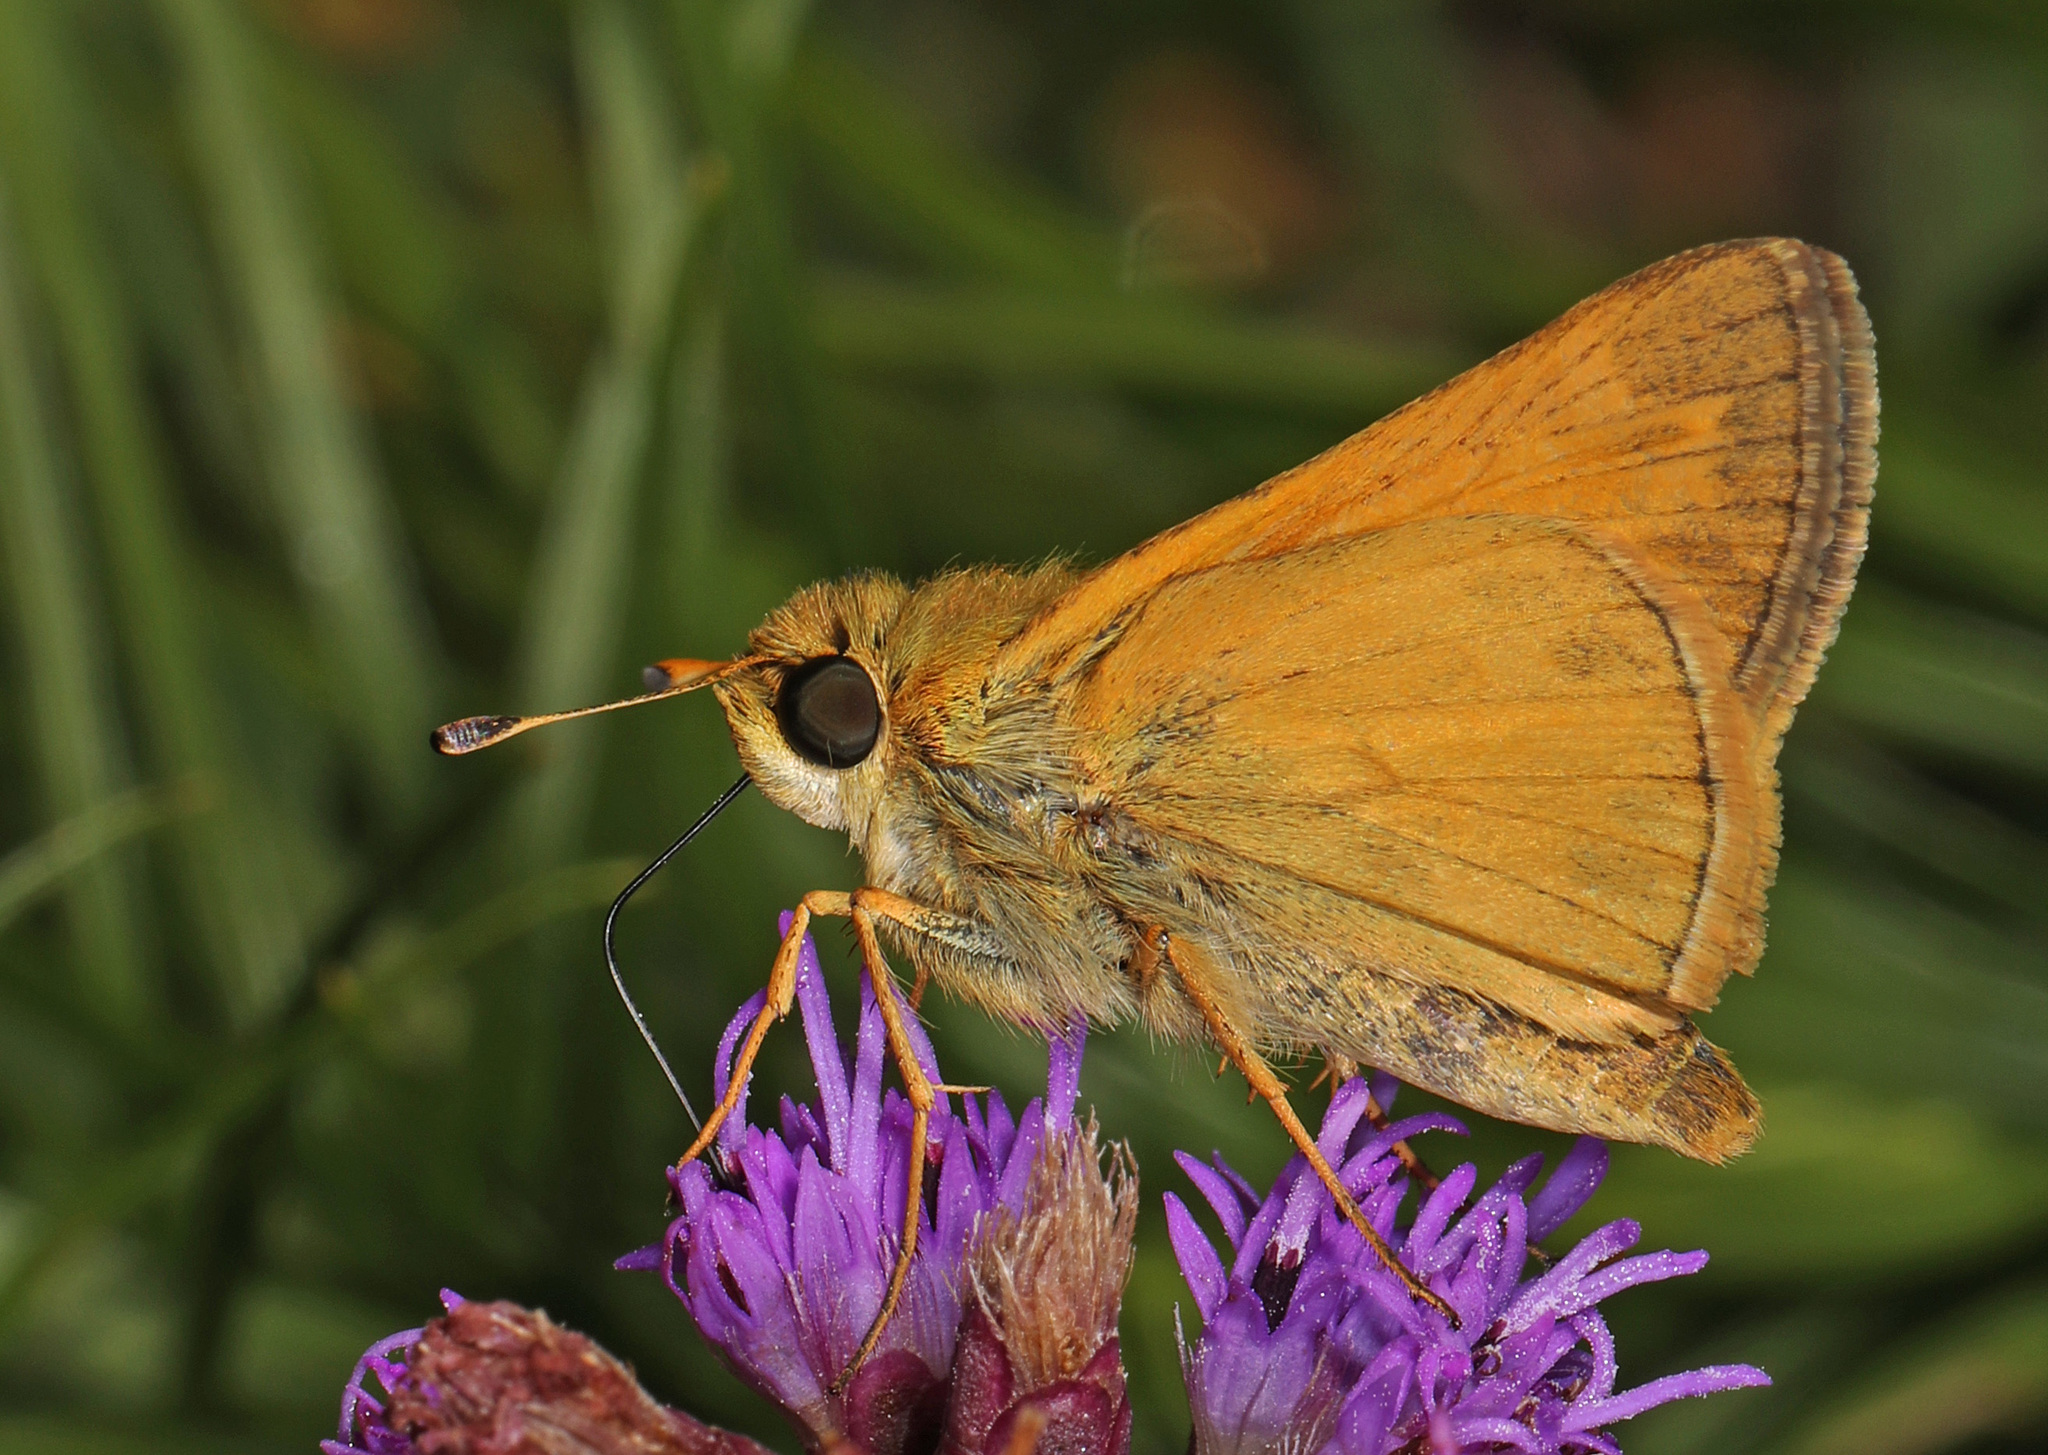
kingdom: Animalia
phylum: Arthropoda
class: Insecta
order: Lepidoptera
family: Hesperiidae
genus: Atalopedes
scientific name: Atalopedes
